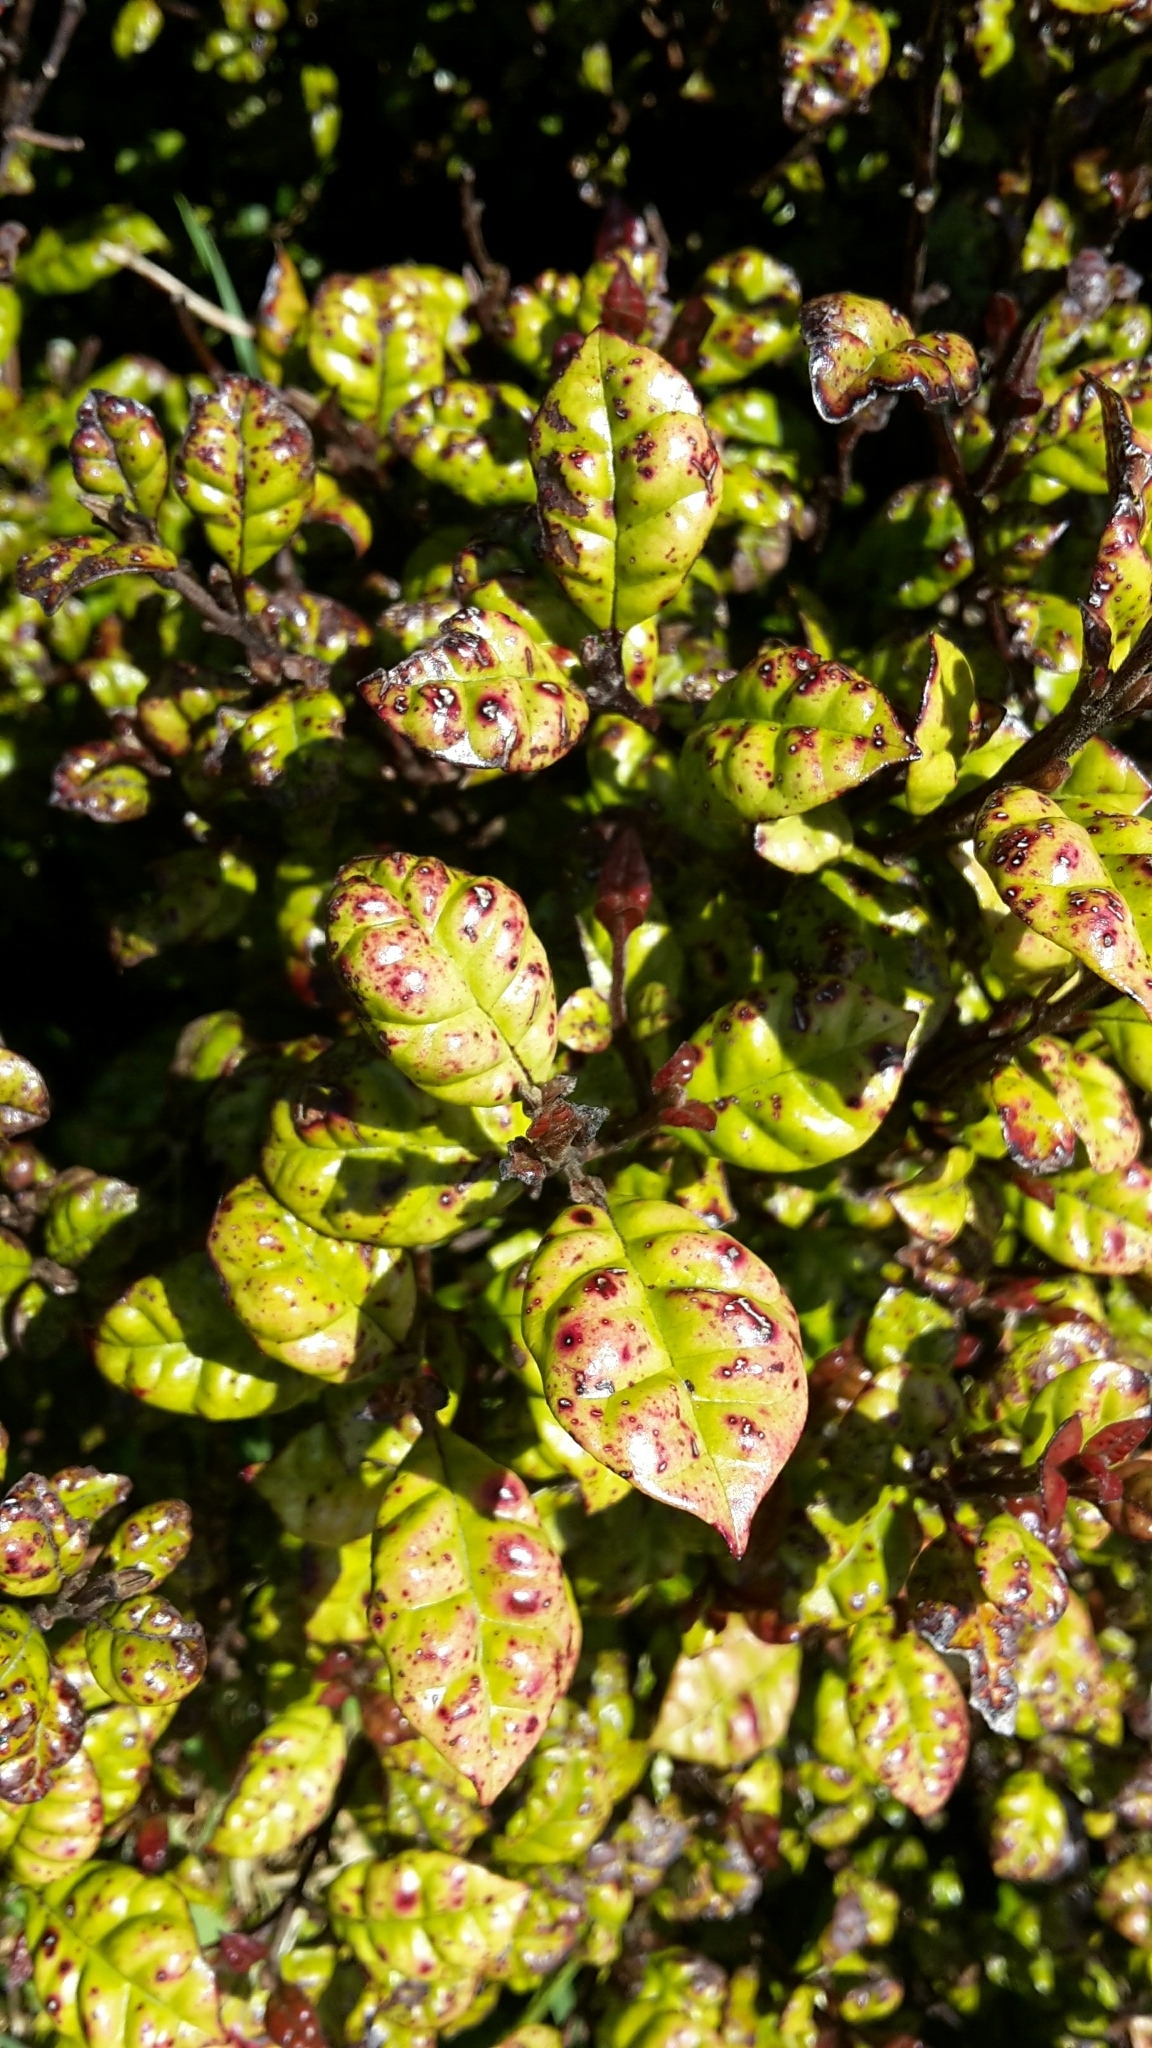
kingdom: Plantae
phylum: Tracheophyta
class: Magnoliopsida
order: Myrtales
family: Myrtaceae
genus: Lophomyrtus
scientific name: Lophomyrtus bullata
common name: Rama rama
